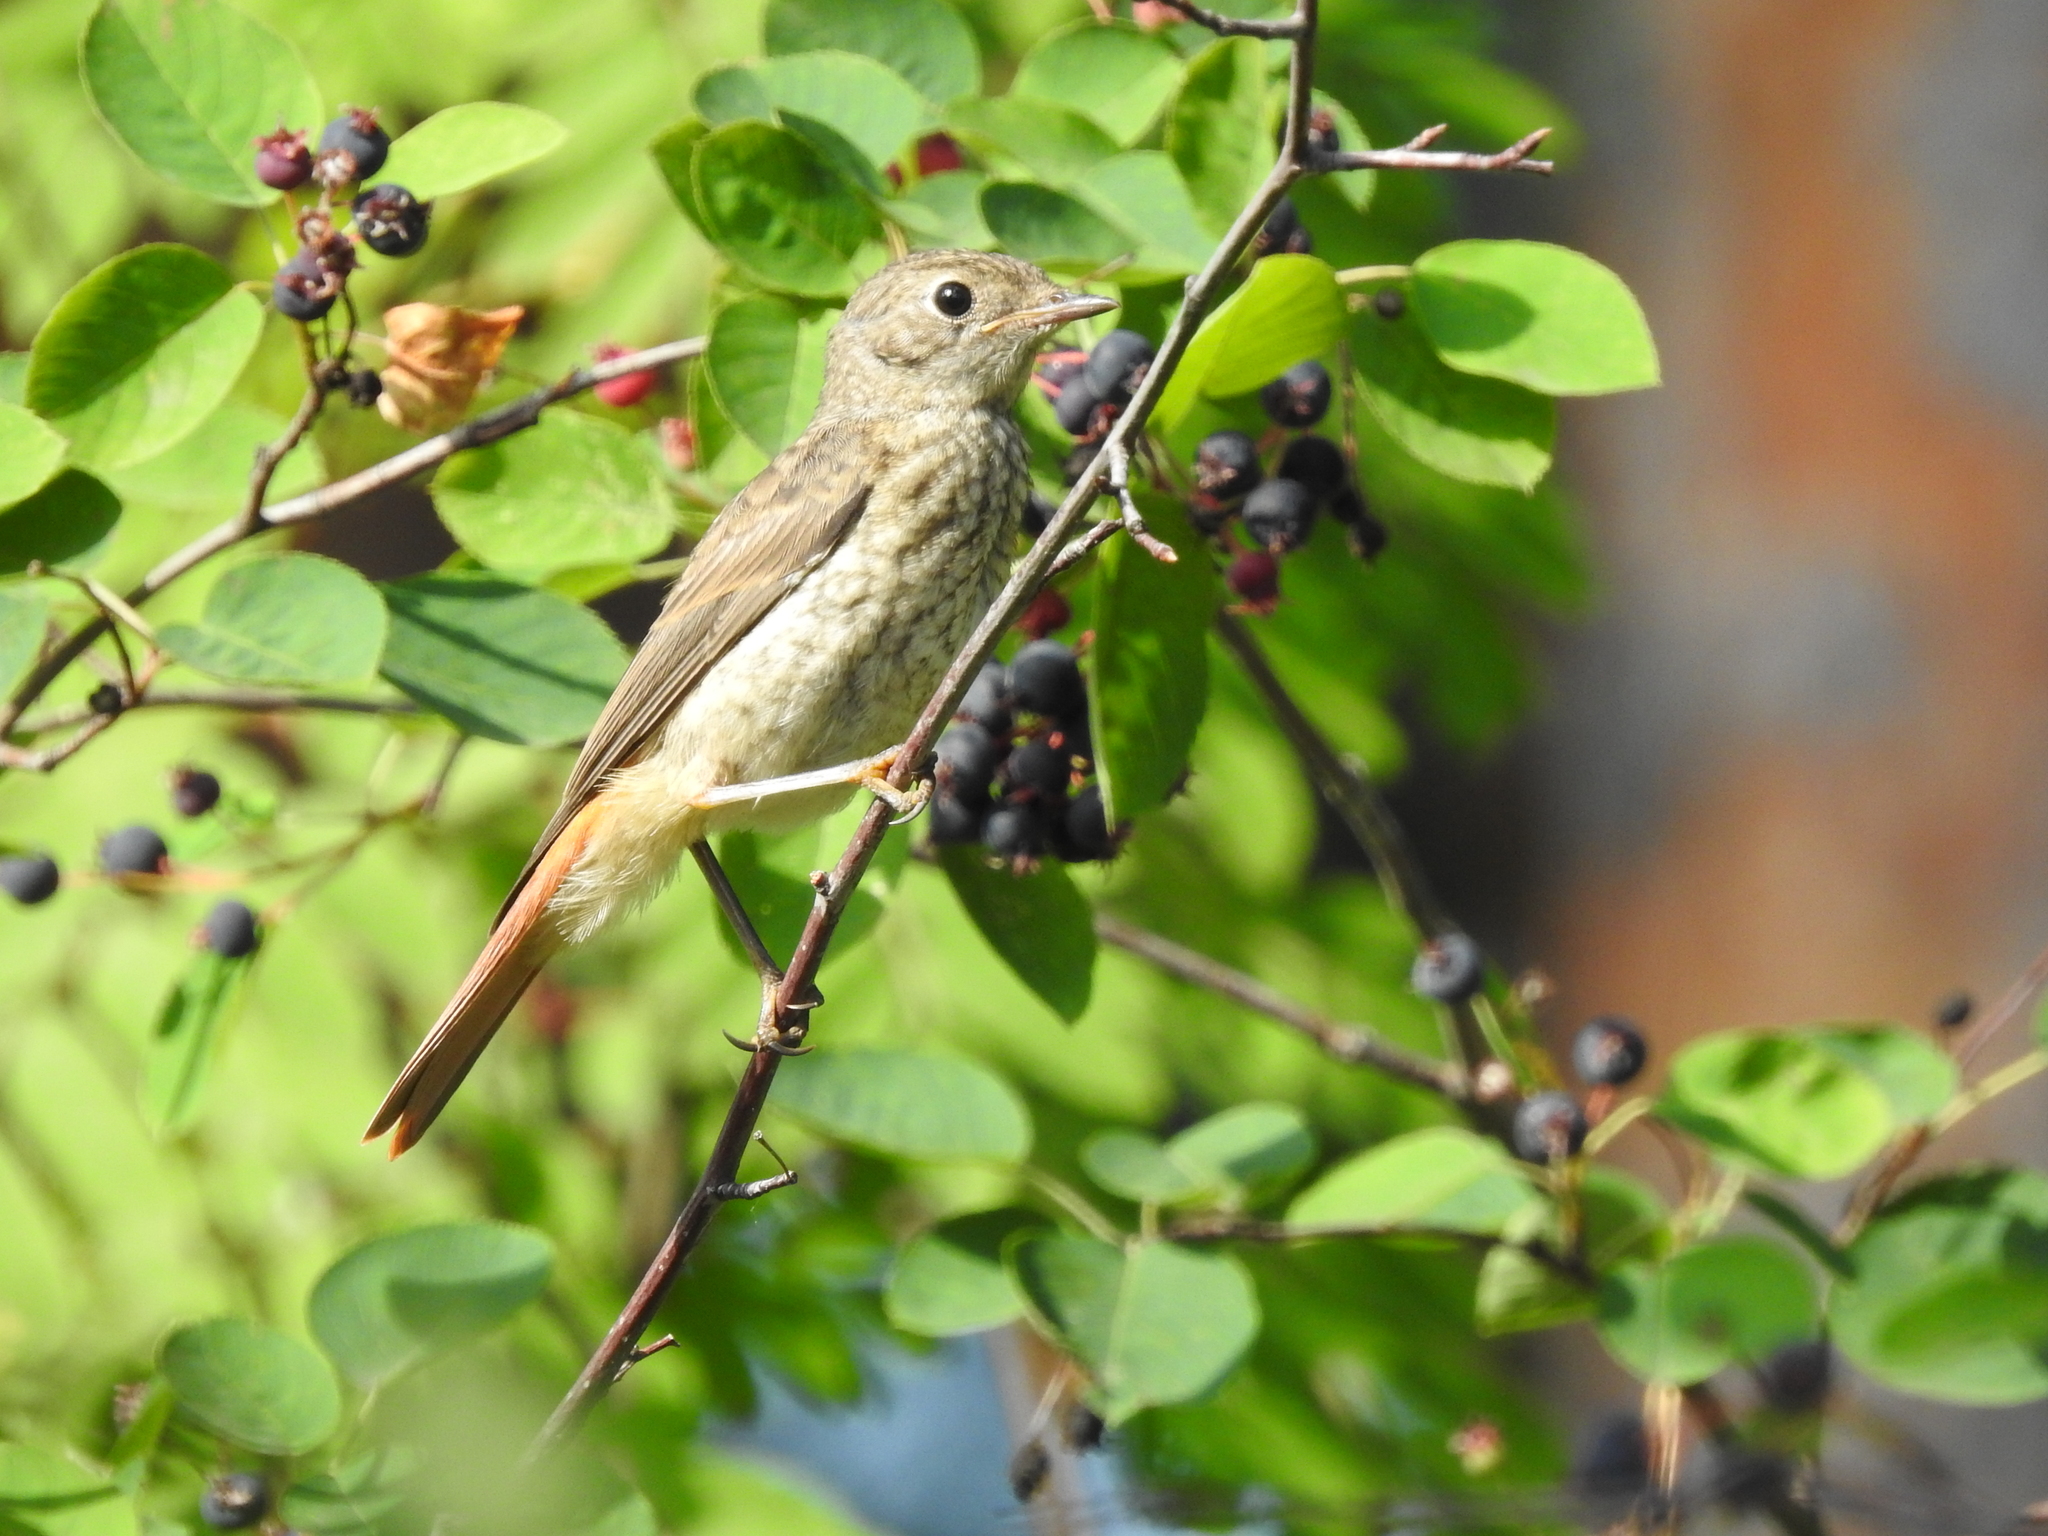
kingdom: Animalia
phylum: Chordata
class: Aves
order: Passeriformes
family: Muscicapidae
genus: Phoenicurus
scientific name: Phoenicurus phoenicurus
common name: Common redstart
